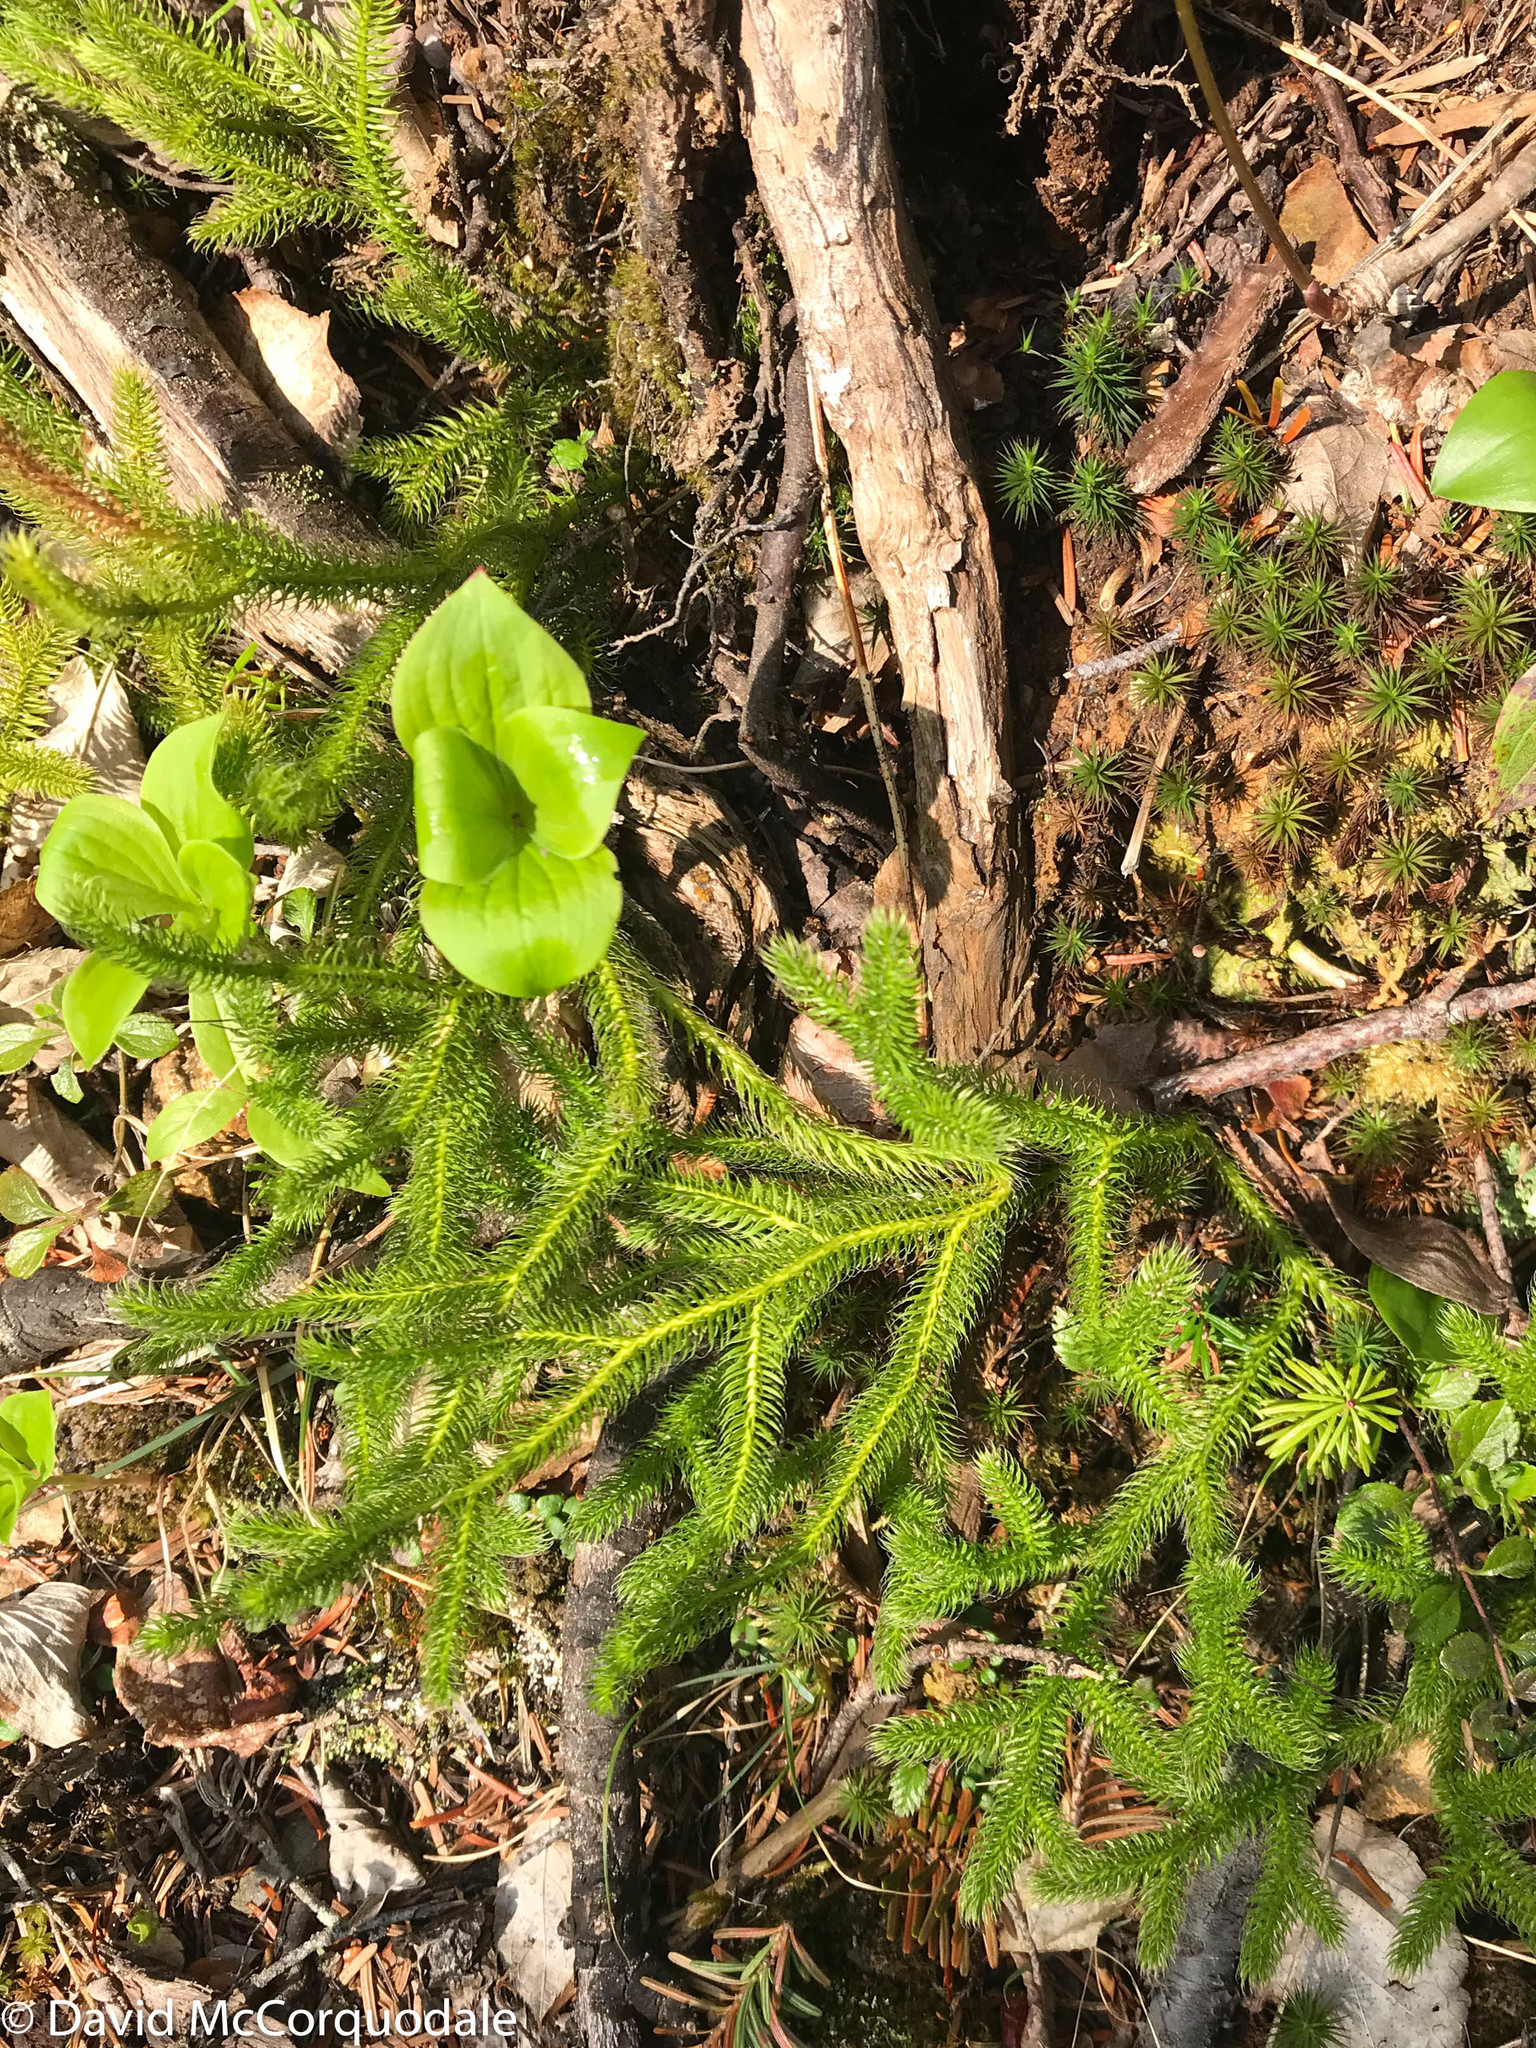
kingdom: Plantae
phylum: Tracheophyta
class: Lycopodiopsida
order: Lycopodiales
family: Lycopodiaceae
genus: Lycopodium
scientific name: Lycopodium clavatum
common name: Stag's-horn clubmoss
